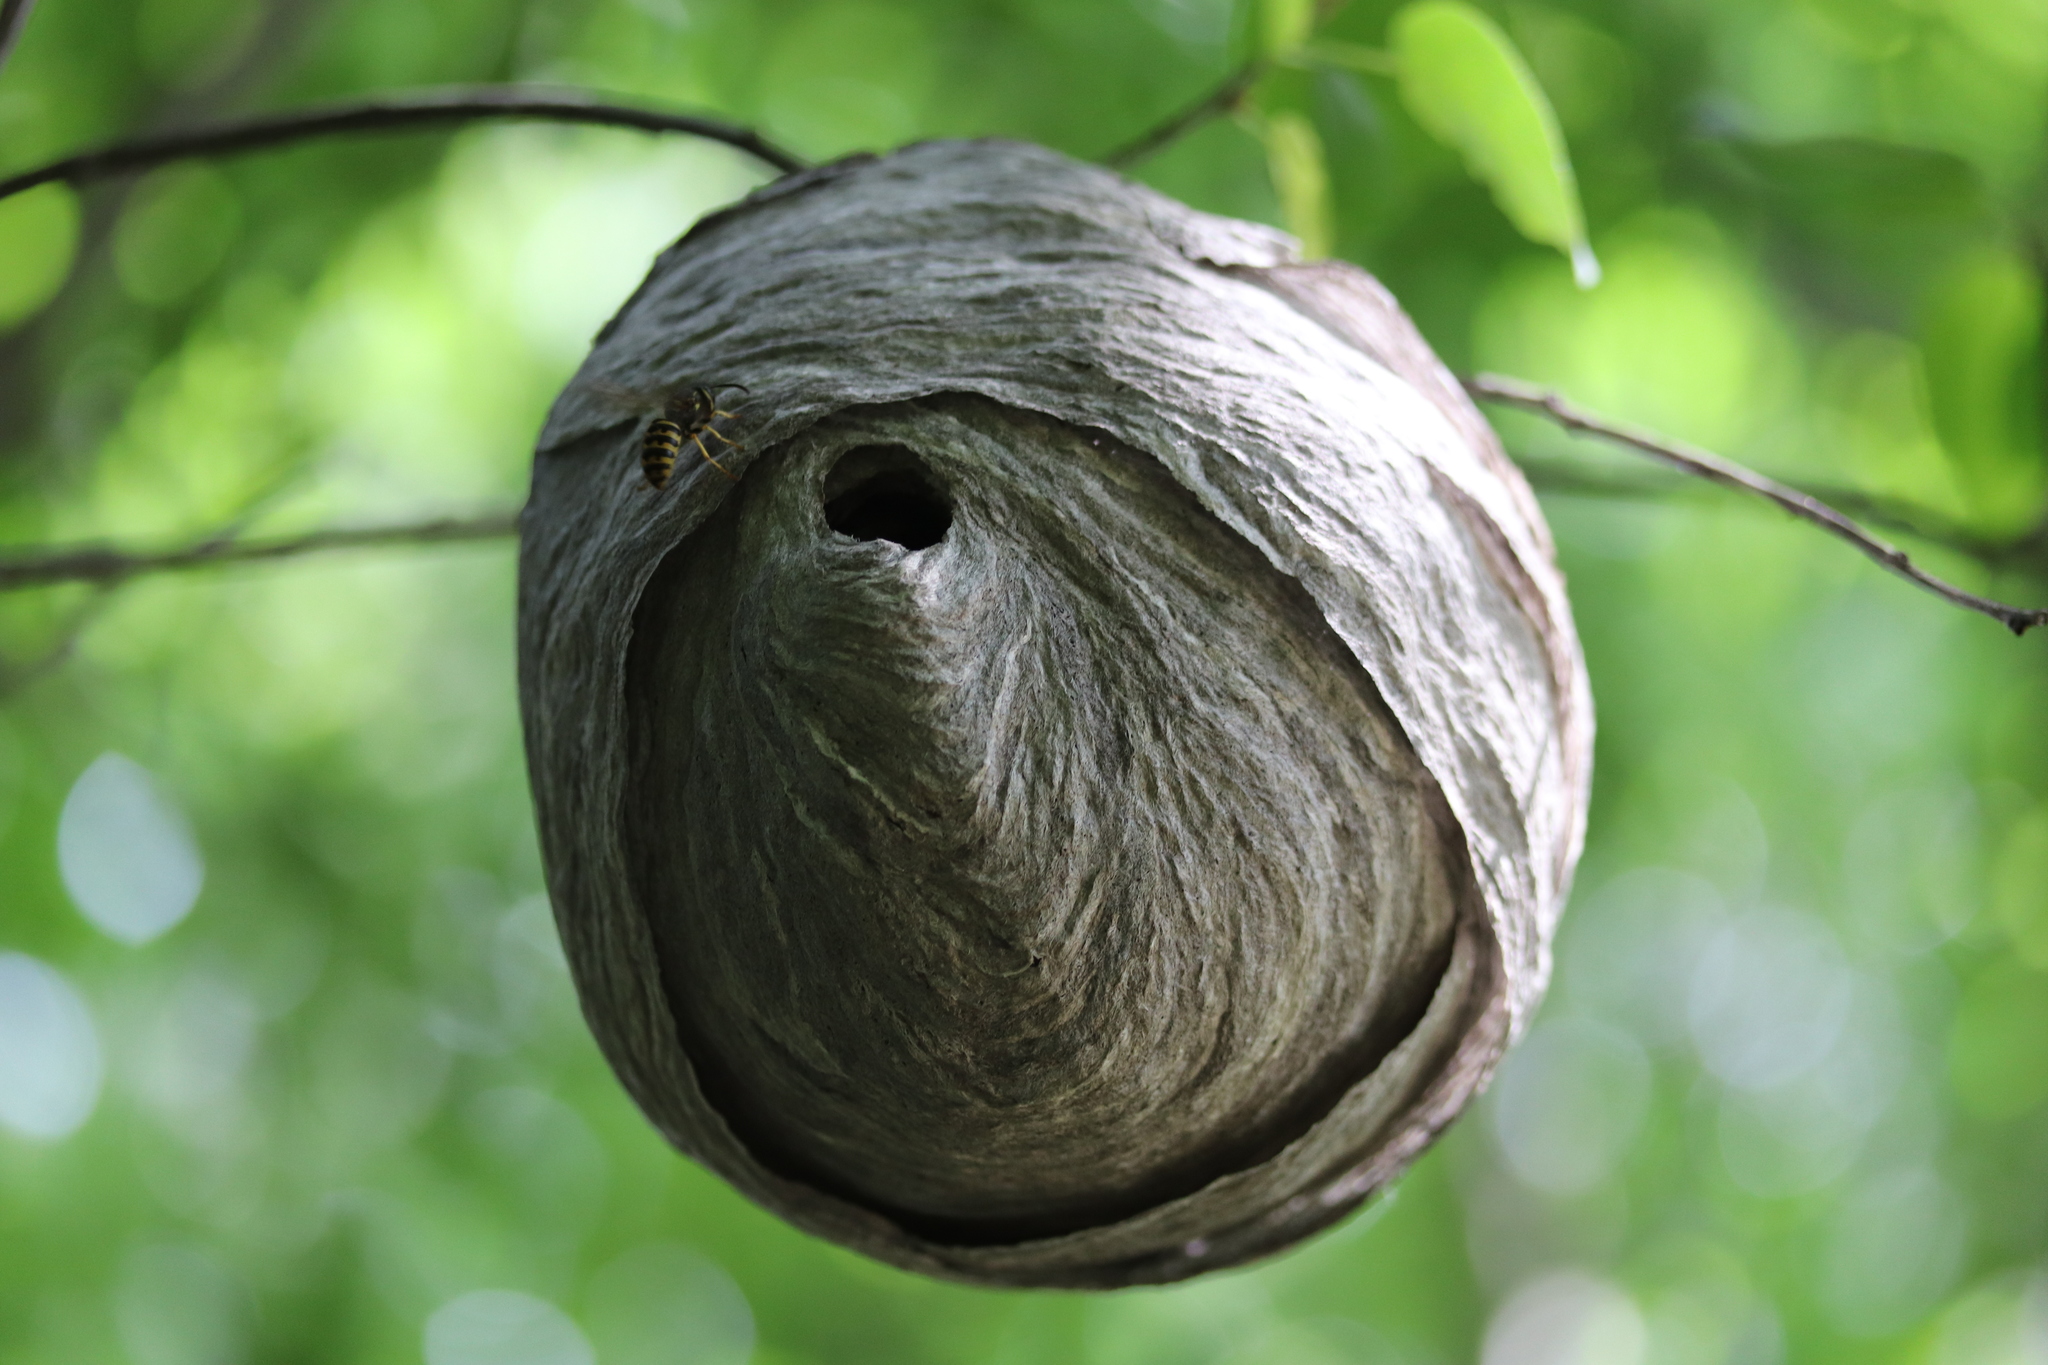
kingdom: Animalia
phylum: Arthropoda
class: Insecta
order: Hymenoptera
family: Vespidae
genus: Dolichovespula
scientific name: Dolichovespula arenaria
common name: Aerial yellowjacket
